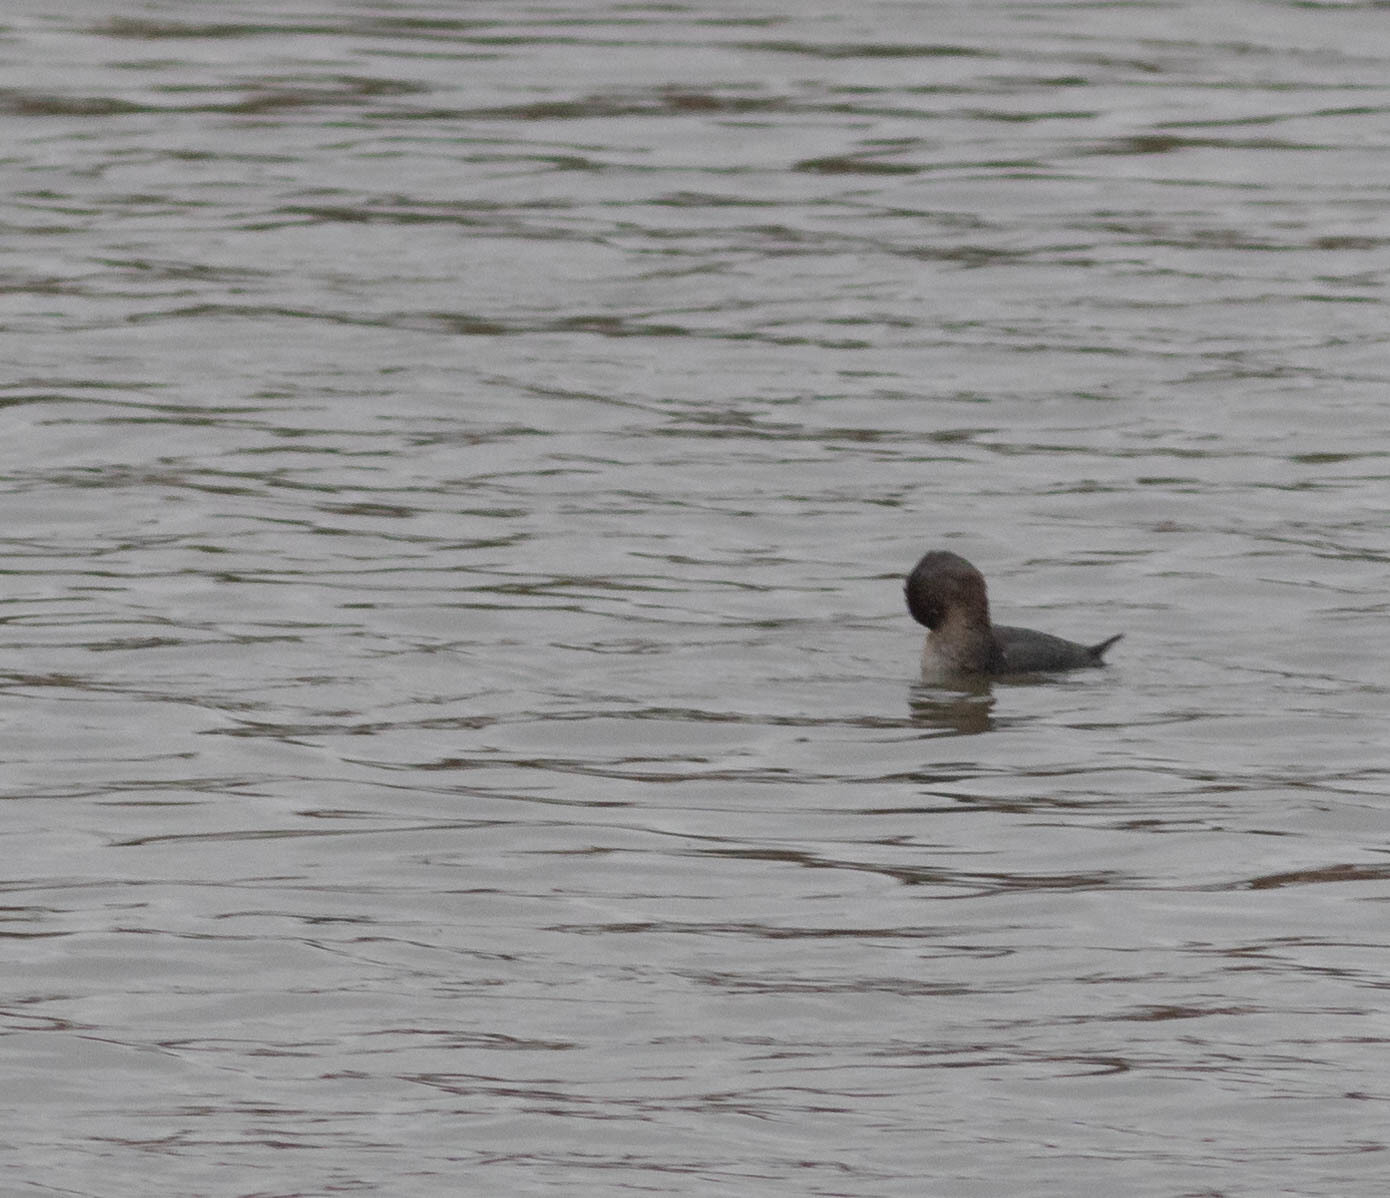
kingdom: Animalia
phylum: Chordata
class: Aves
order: Podicipediformes
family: Podicipedidae
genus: Podilymbus
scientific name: Podilymbus podiceps
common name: Pied-billed grebe
